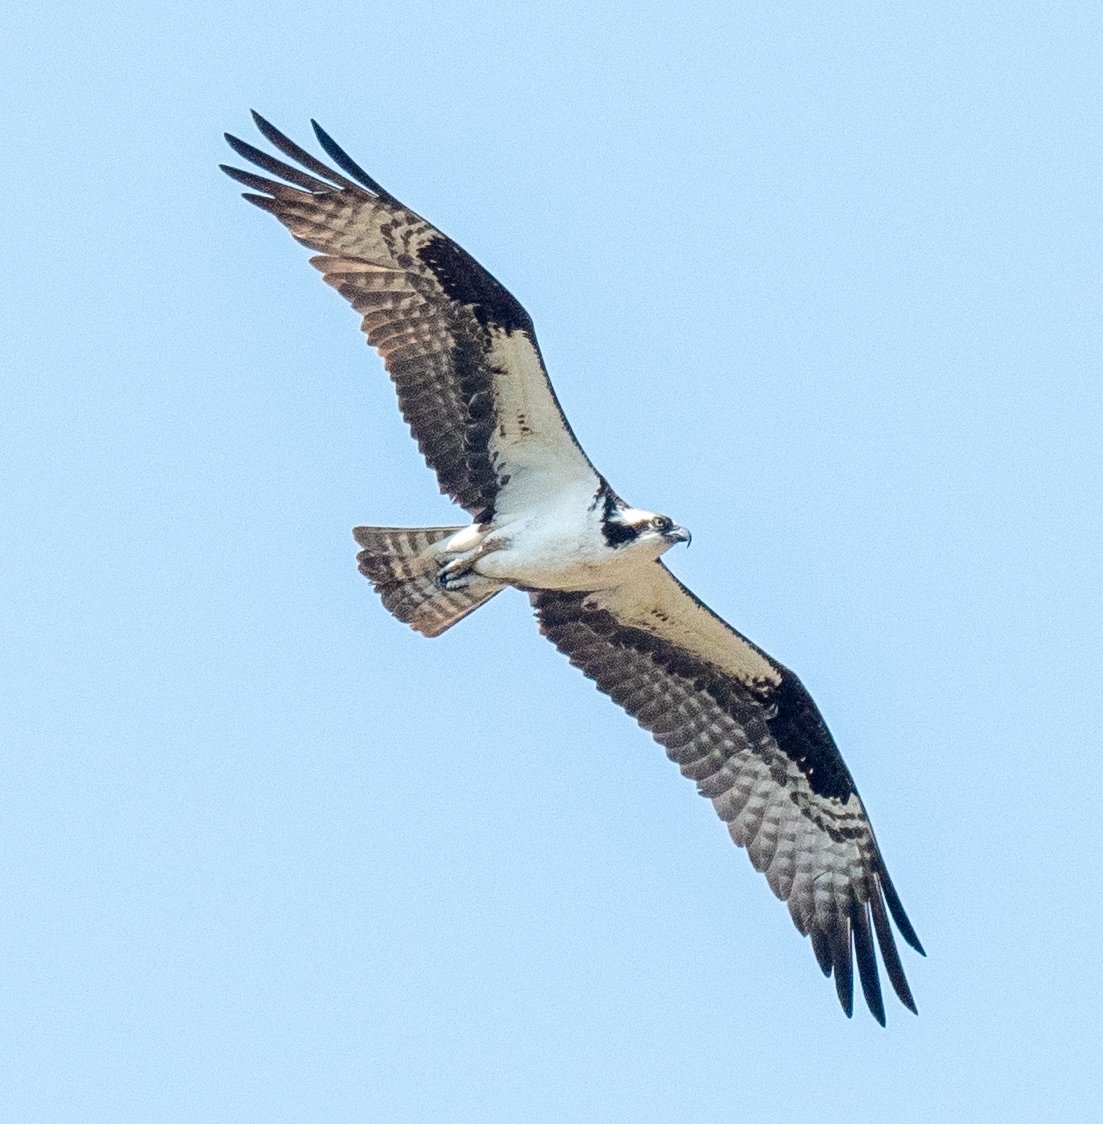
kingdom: Animalia
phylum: Chordata
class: Aves
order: Accipitriformes
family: Pandionidae
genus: Pandion
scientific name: Pandion haliaetus
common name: Osprey
